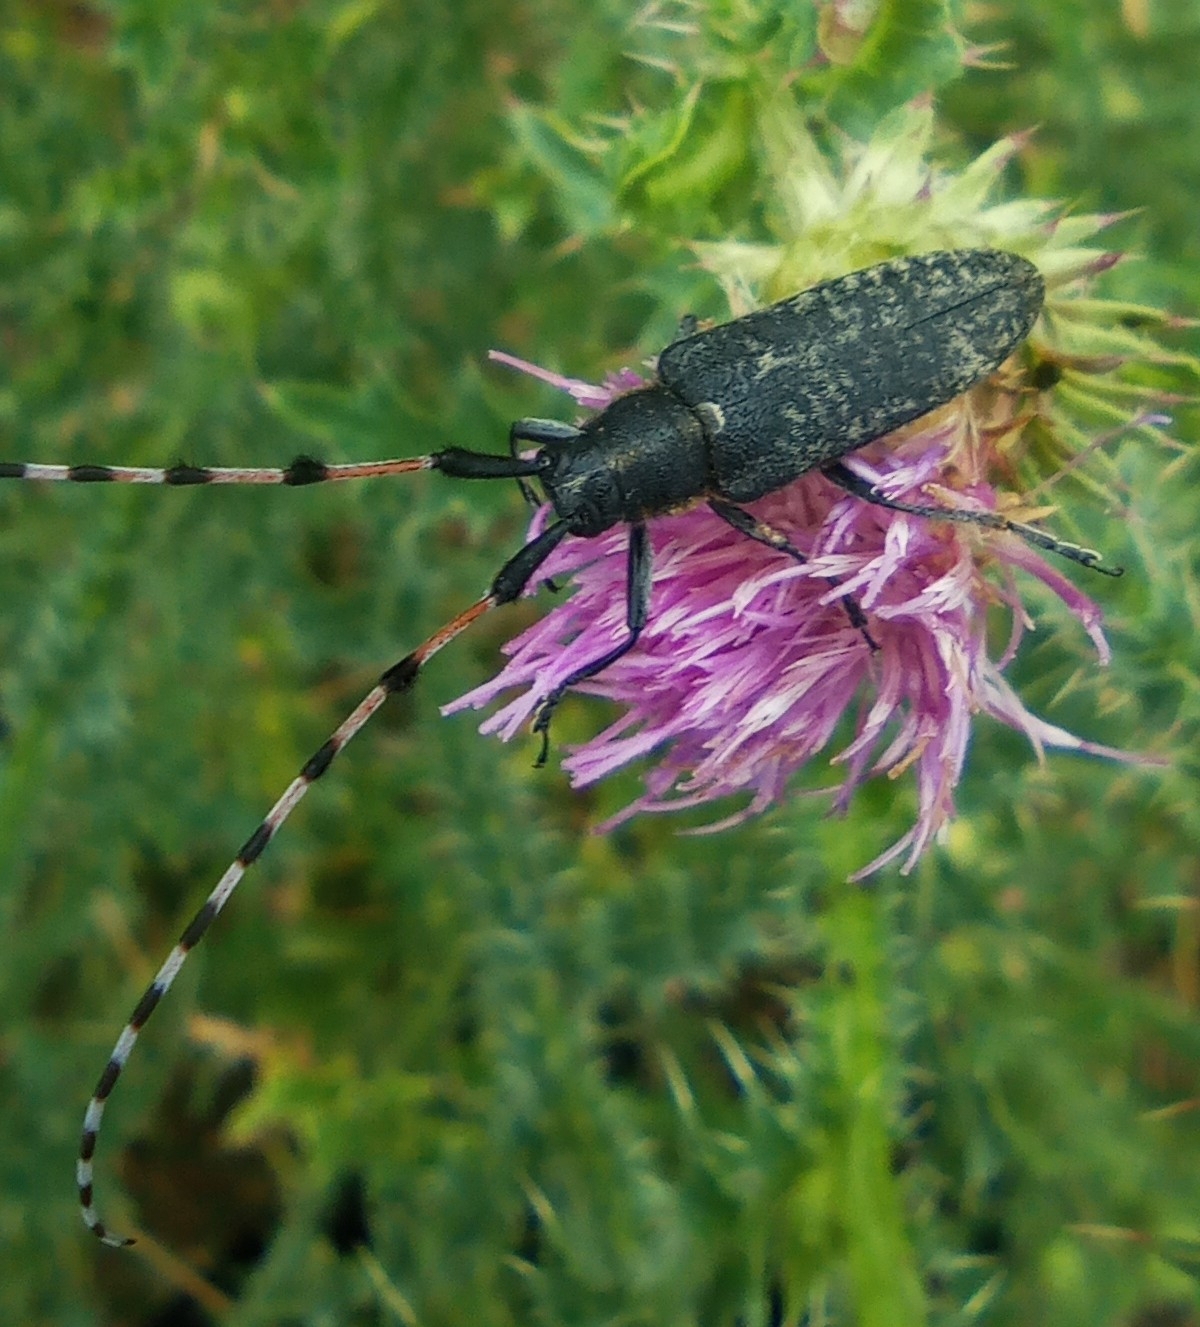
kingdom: Animalia
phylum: Arthropoda
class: Insecta
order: Coleoptera
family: Cerambycidae
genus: Agapanthia
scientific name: Agapanthia dahlii
